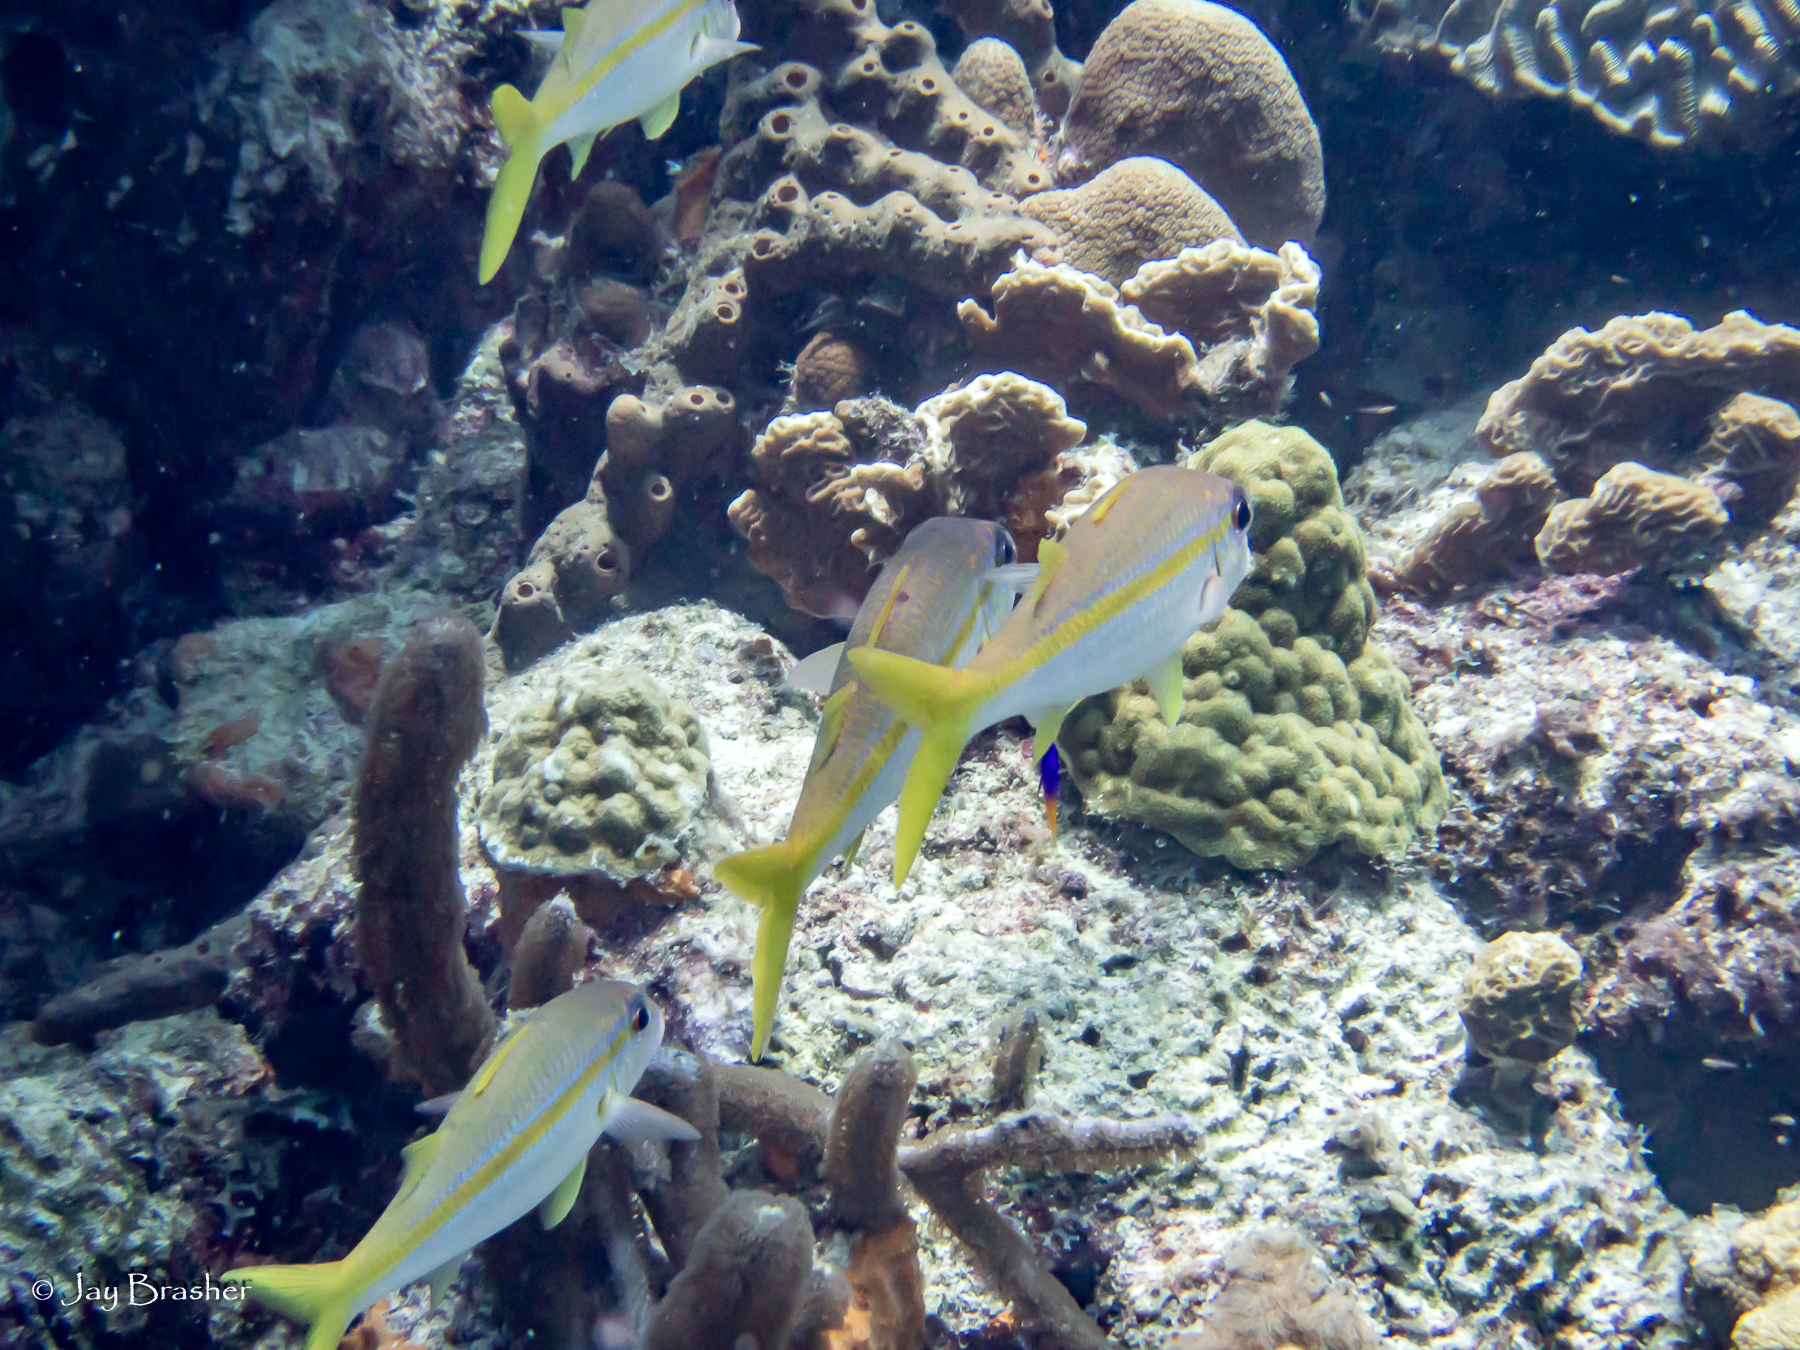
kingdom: Animalia
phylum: Chordata
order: Perciformes
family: Mullidae
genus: Mulloidichthys
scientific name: Mulloidichthys martinicus
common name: Yellow goatfish
